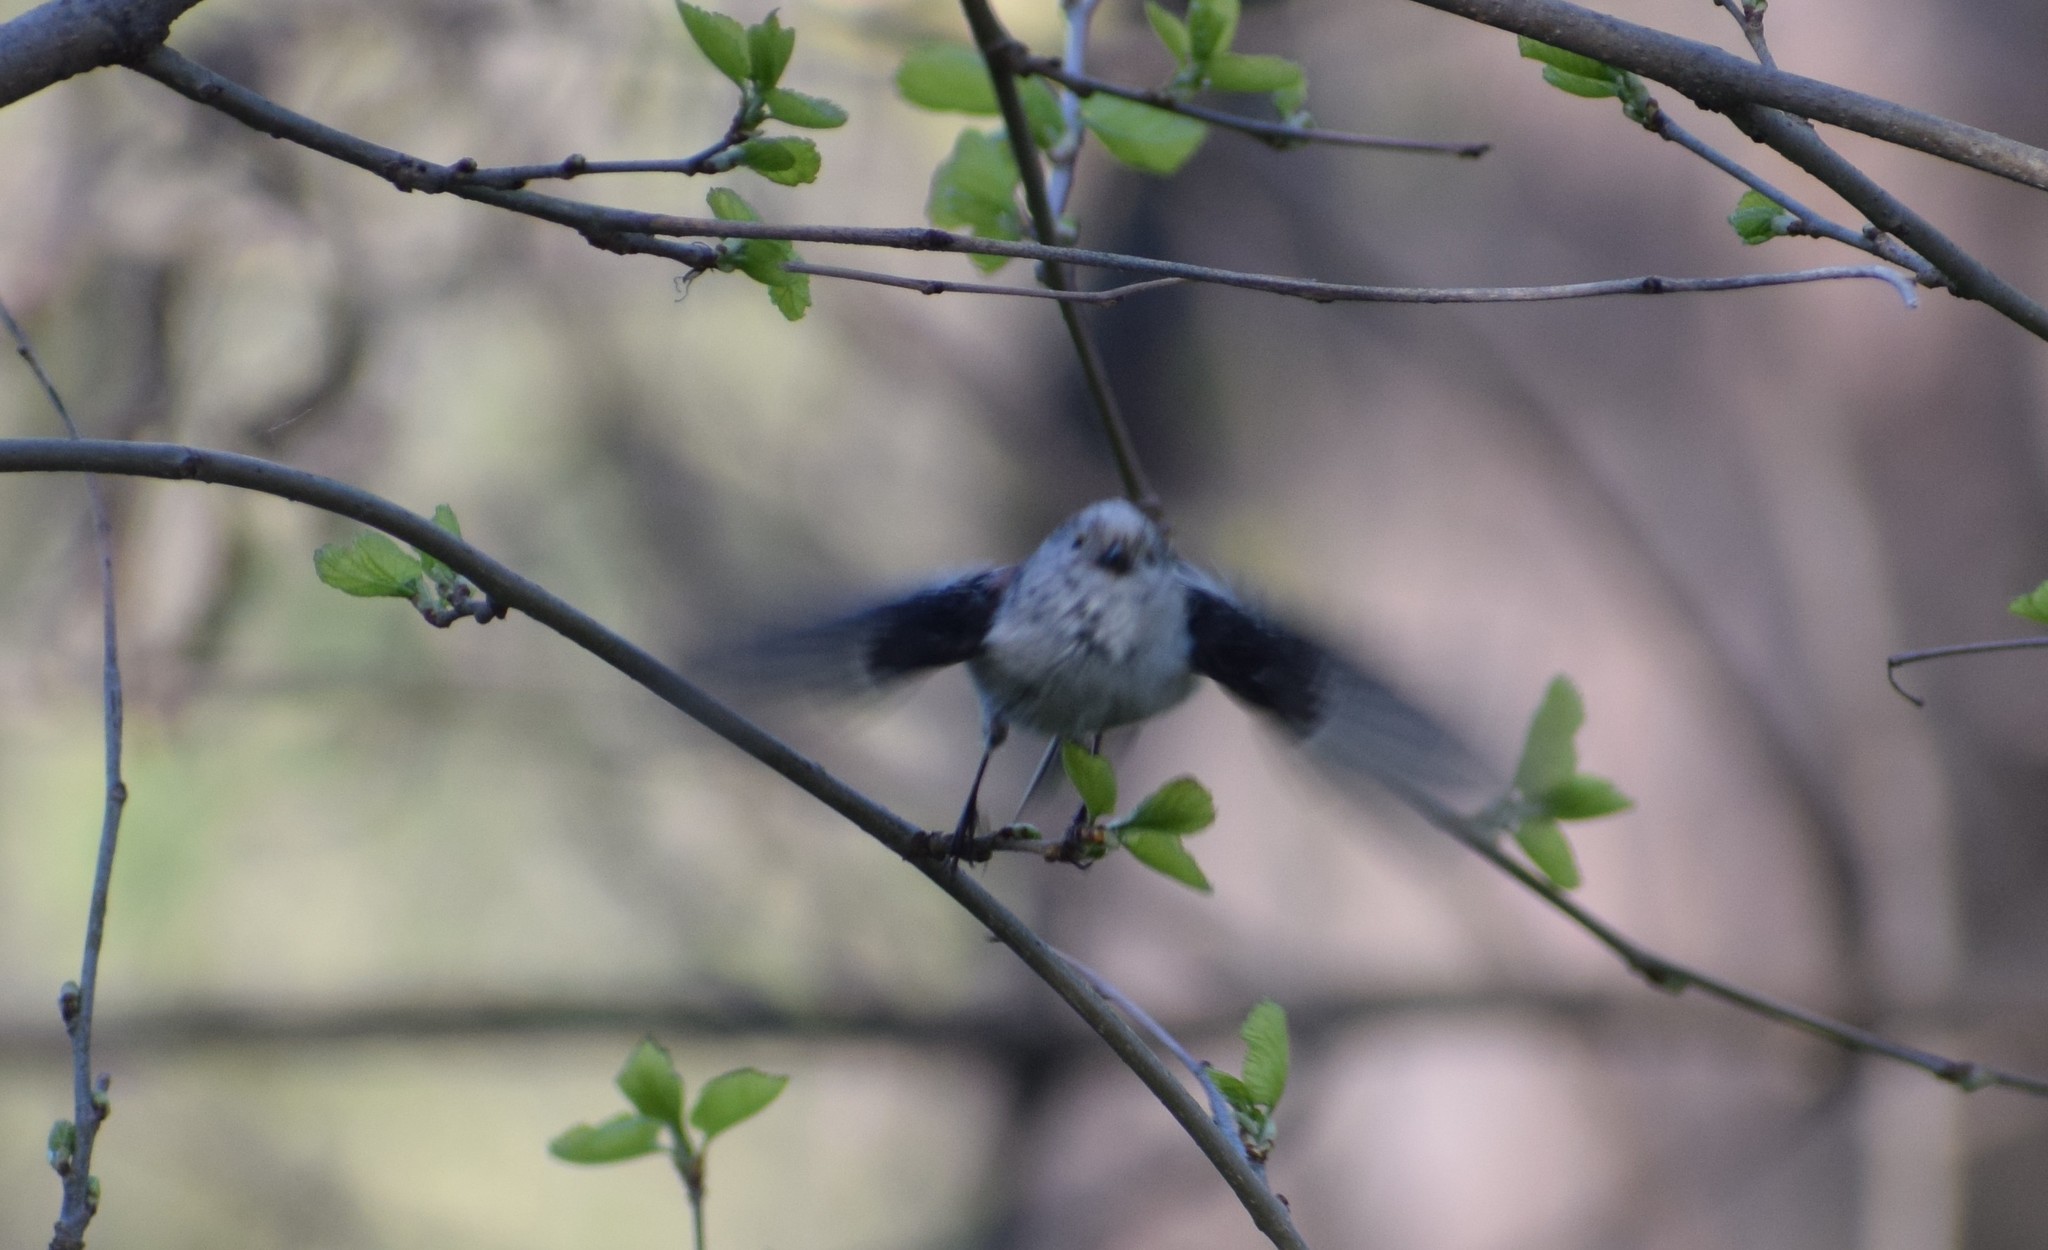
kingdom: Animalia
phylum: Chordata
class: Aves
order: Passeriformes
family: Aegithalidae
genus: Aegithalos
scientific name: Aegithalos caudatus
